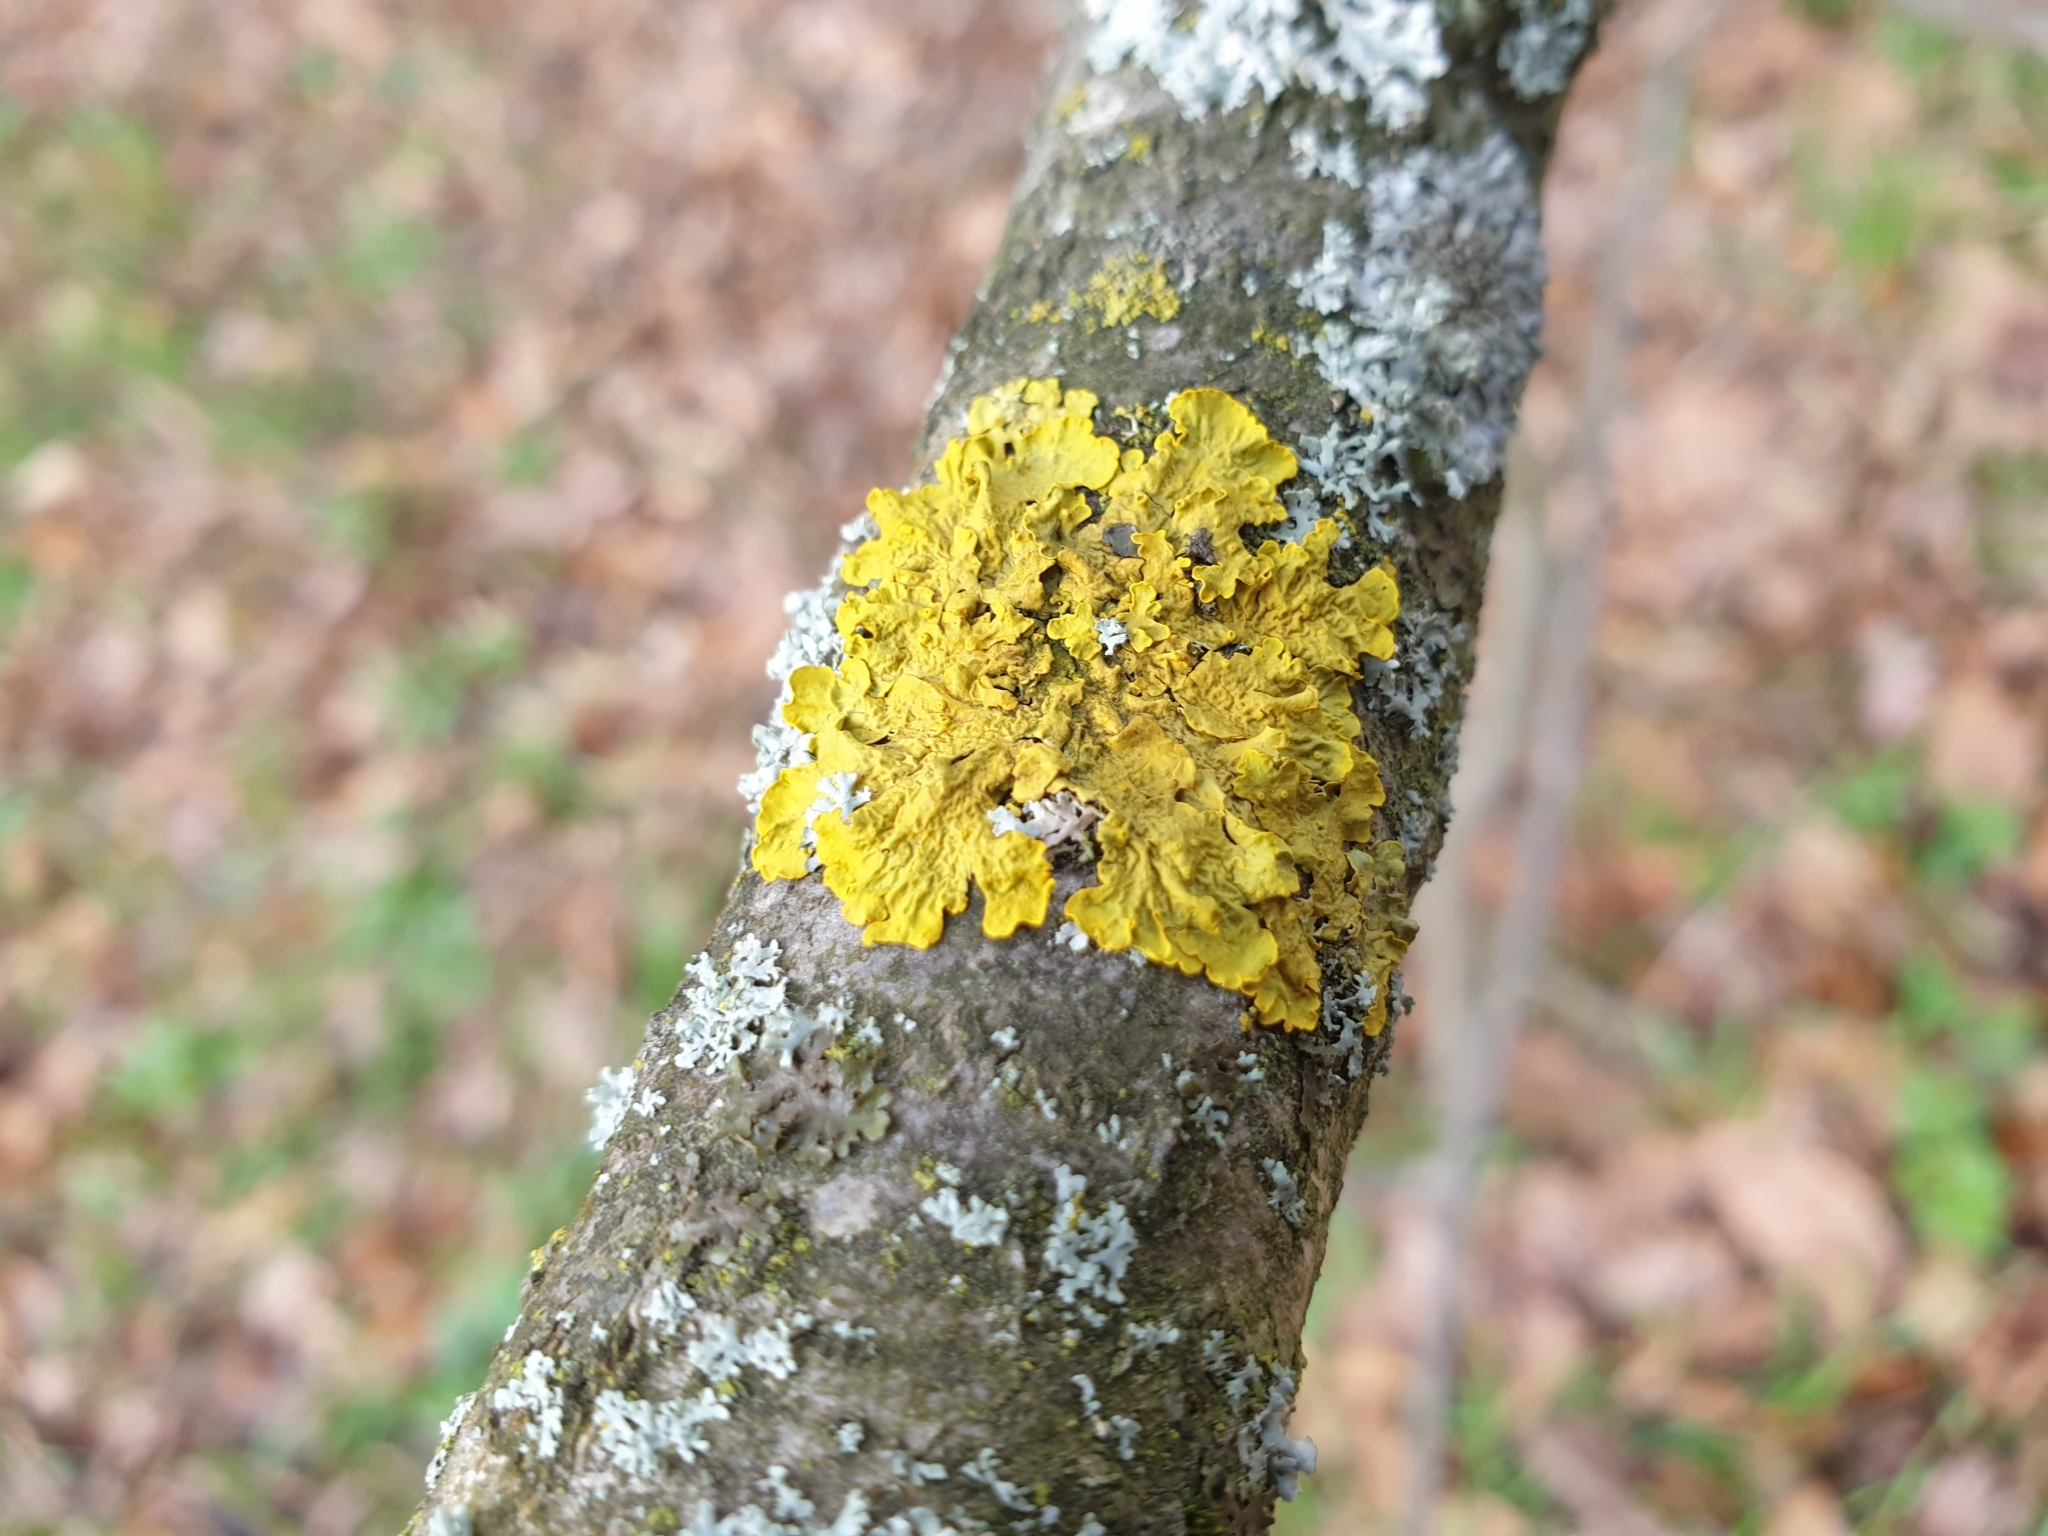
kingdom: Fungi
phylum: Ascomycota
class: Lecanoromycetes
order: Teloschistales
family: Teloschistaceae
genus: Xanthoria
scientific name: Xanthoria parietina
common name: Common orange lichen
